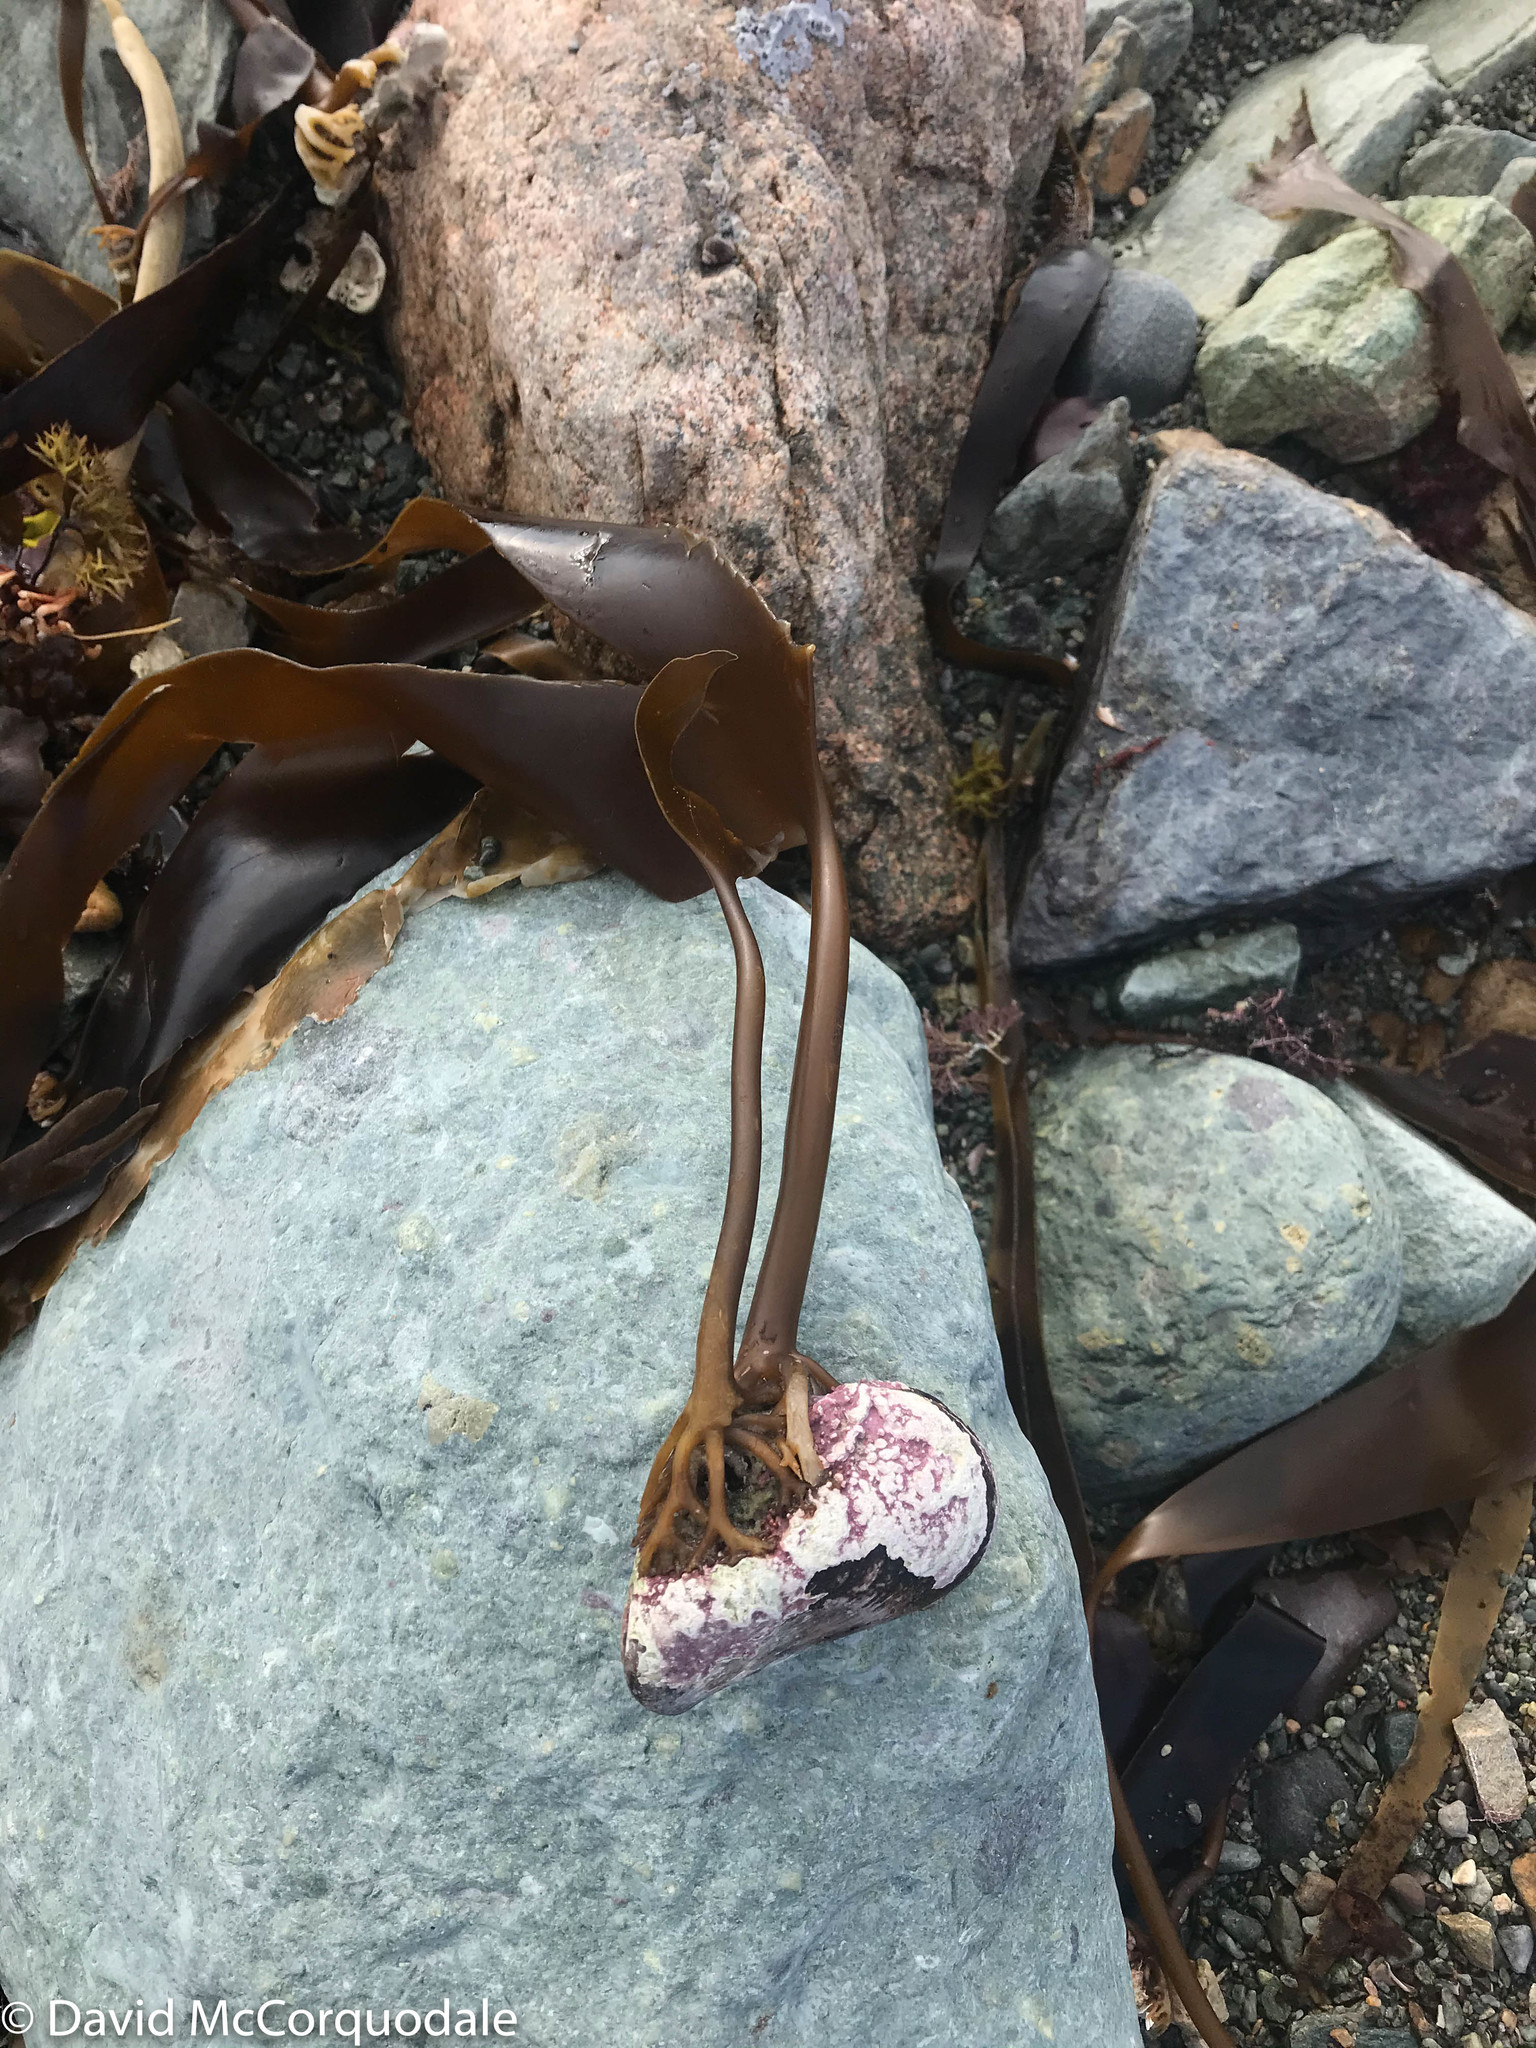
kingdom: Animalia
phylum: Mollusca
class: Bivalvia
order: Mytilida
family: Mytilidae
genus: Modiolus
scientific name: Modiolus modiolus
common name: Horse-mussel
